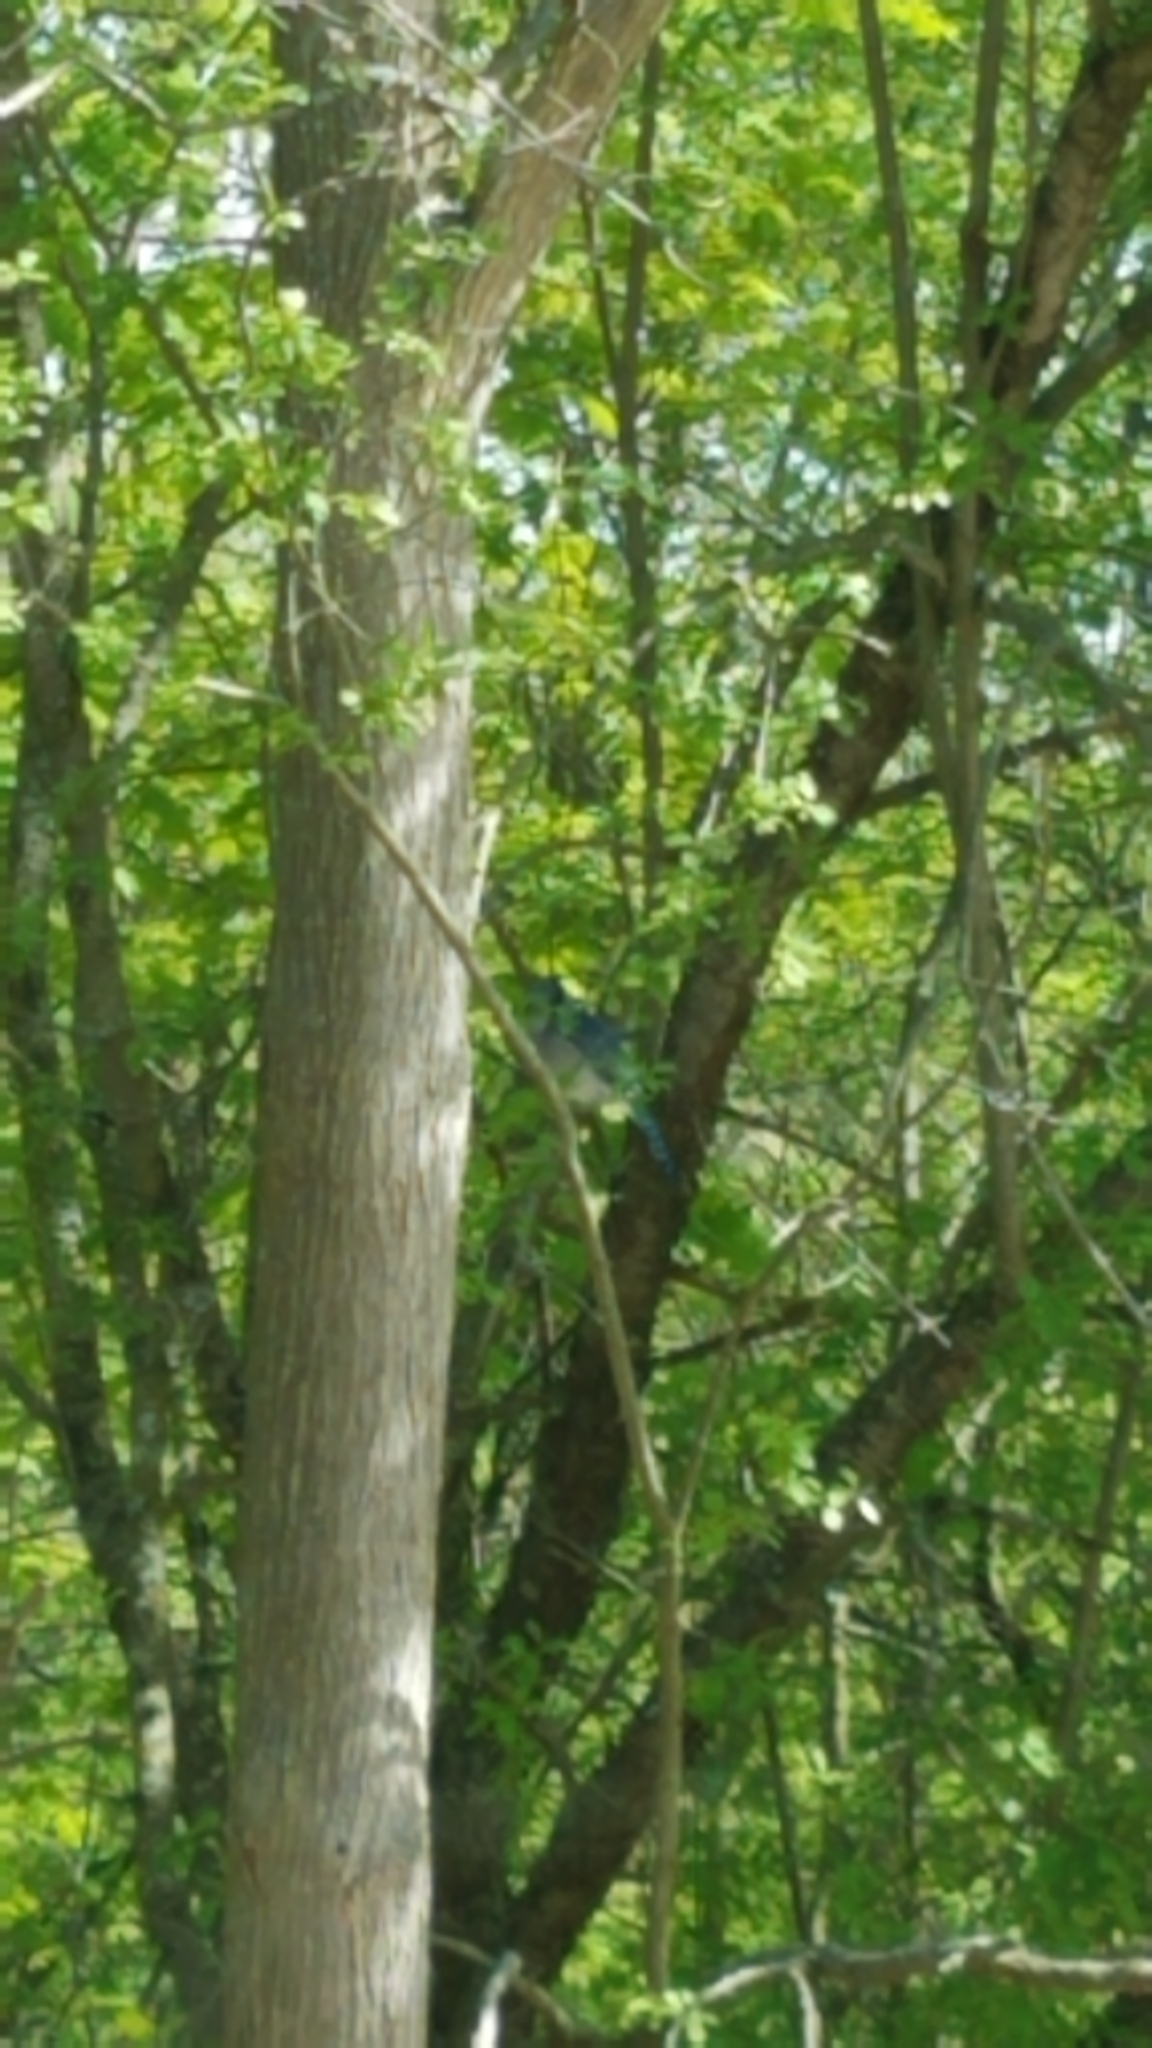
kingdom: Animalia
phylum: Chordata
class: Aves
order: Passeriformes
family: Corvidae
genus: Cyanocitta
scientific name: Cyanocitta cristata
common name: Blue jay
